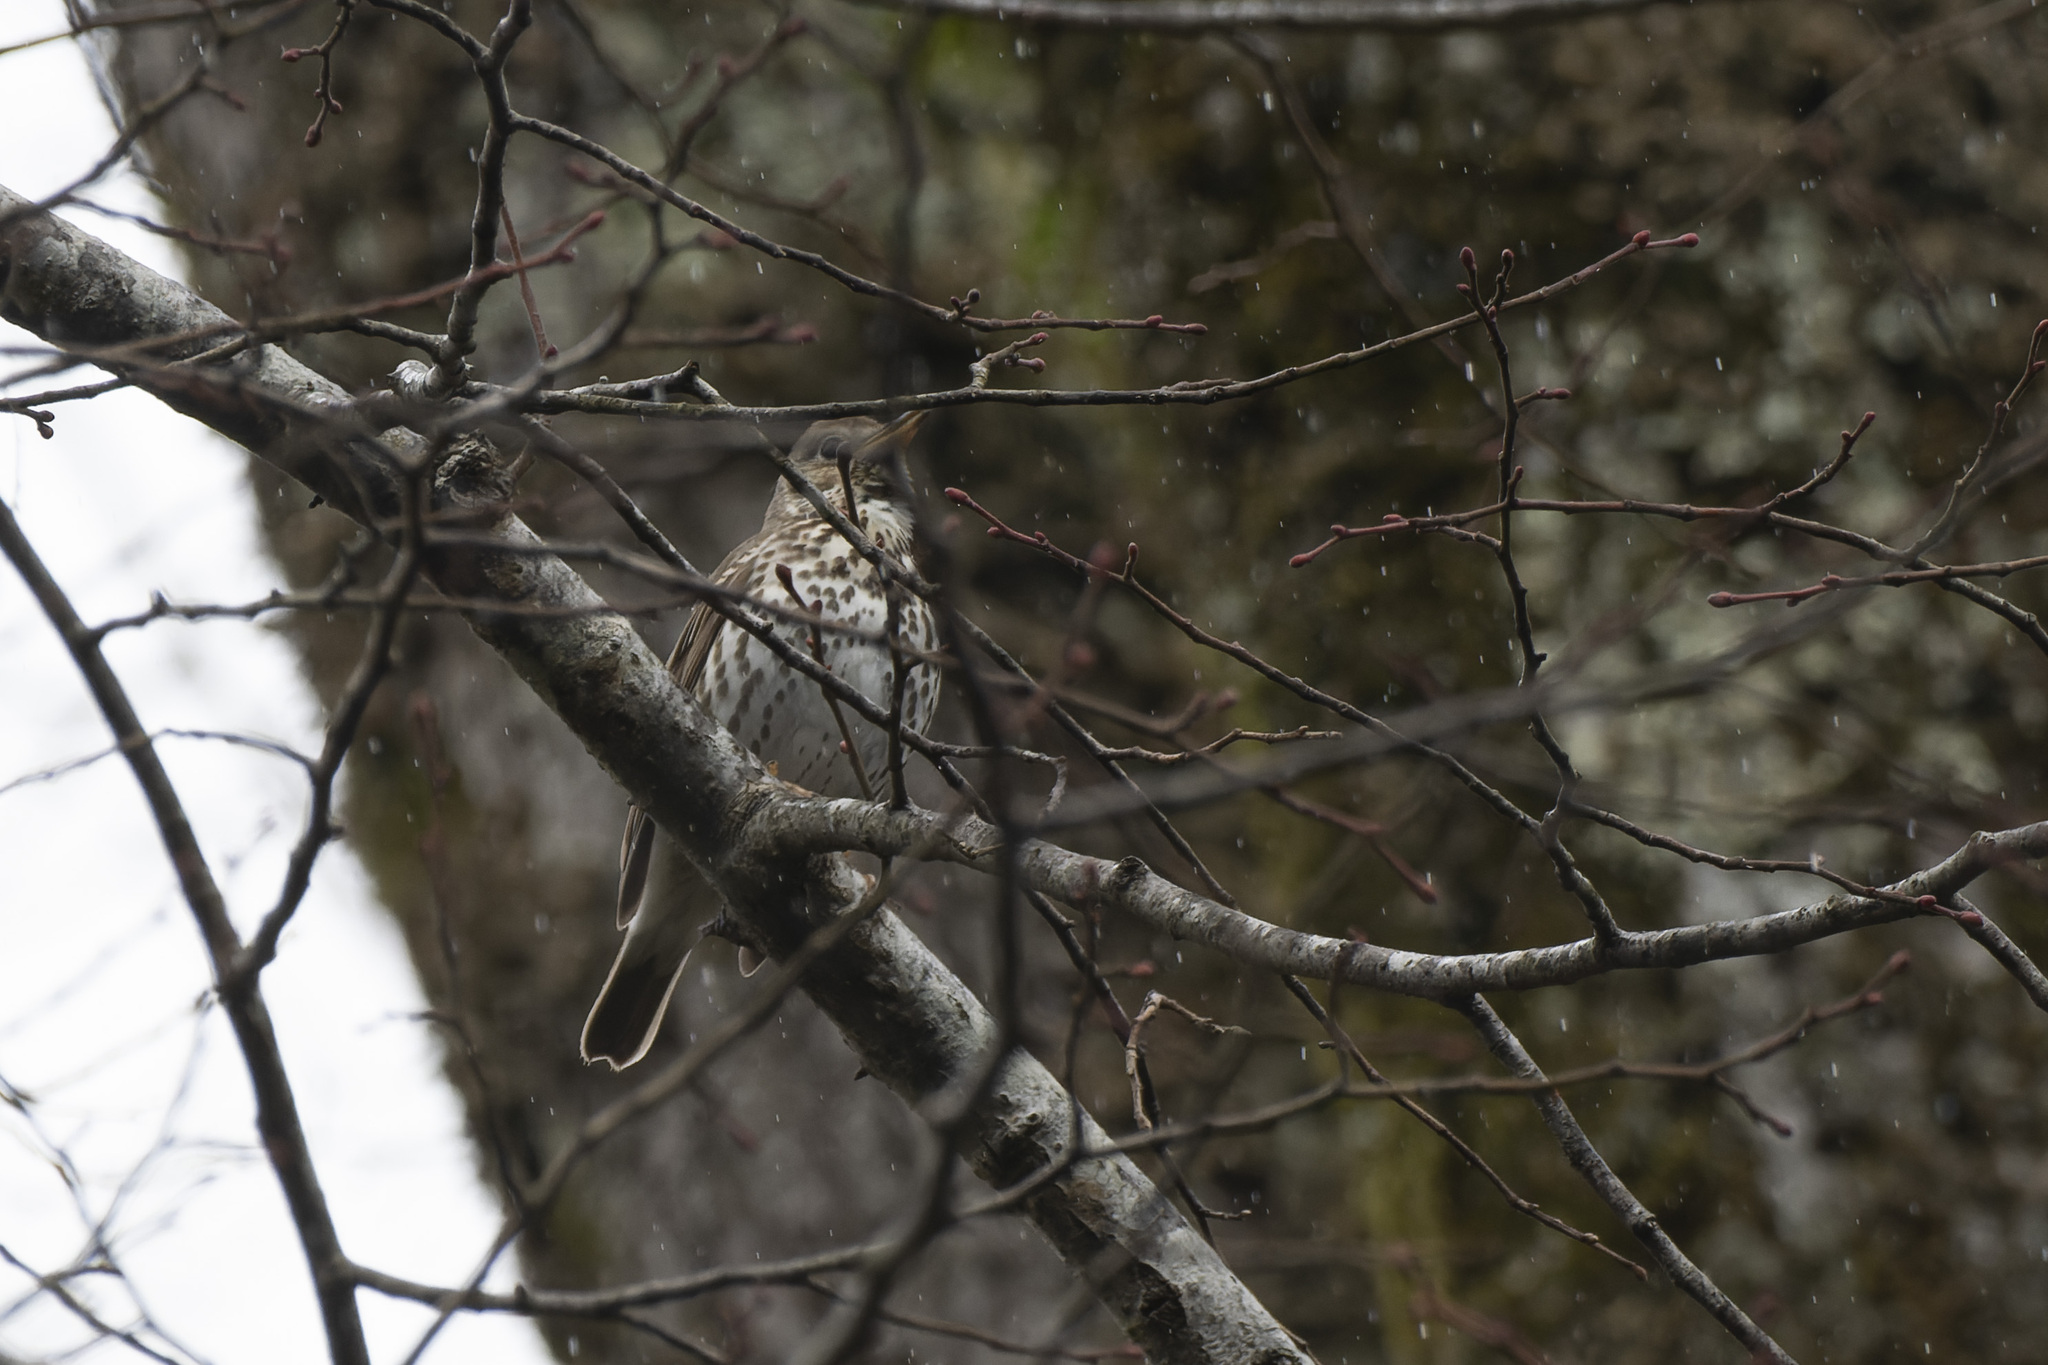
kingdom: Animalia
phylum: Chordata
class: Aves
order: Passeriformes
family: Turdidae
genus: Turdus
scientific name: Turdus philomelos
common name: Song thrush
